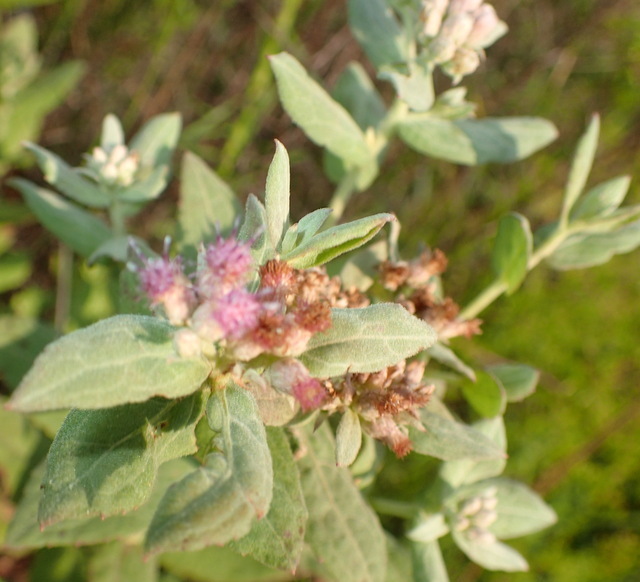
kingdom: Plantae
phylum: Tracheophyta
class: Magnoliopsida
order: Asterales
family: Asteraceae
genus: Pluchea
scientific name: Pluchea baccharis
